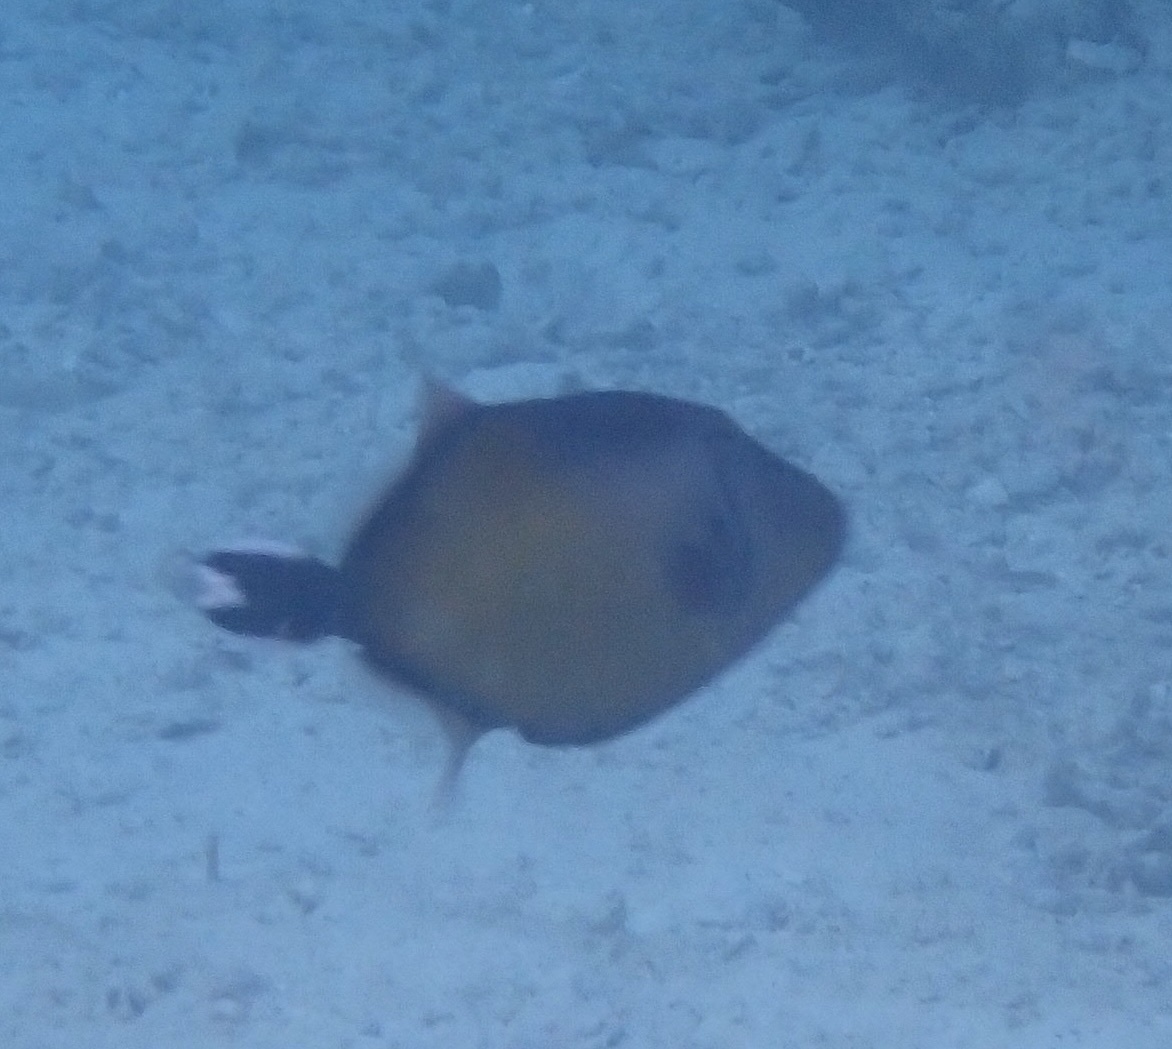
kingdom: Animalia
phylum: Chordata
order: Tetraodontiformes
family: Balistidae
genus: Sufflamen
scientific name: Sufflamen chrysopterum
